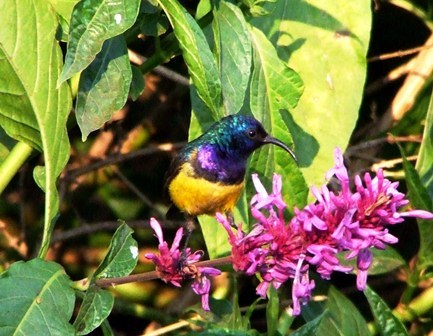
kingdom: Animalia
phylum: Chordata
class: Aves
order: Passeriformes
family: Nectariniidae
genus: Cinnyris
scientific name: Cinnyris venustus
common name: Variable sunbird
